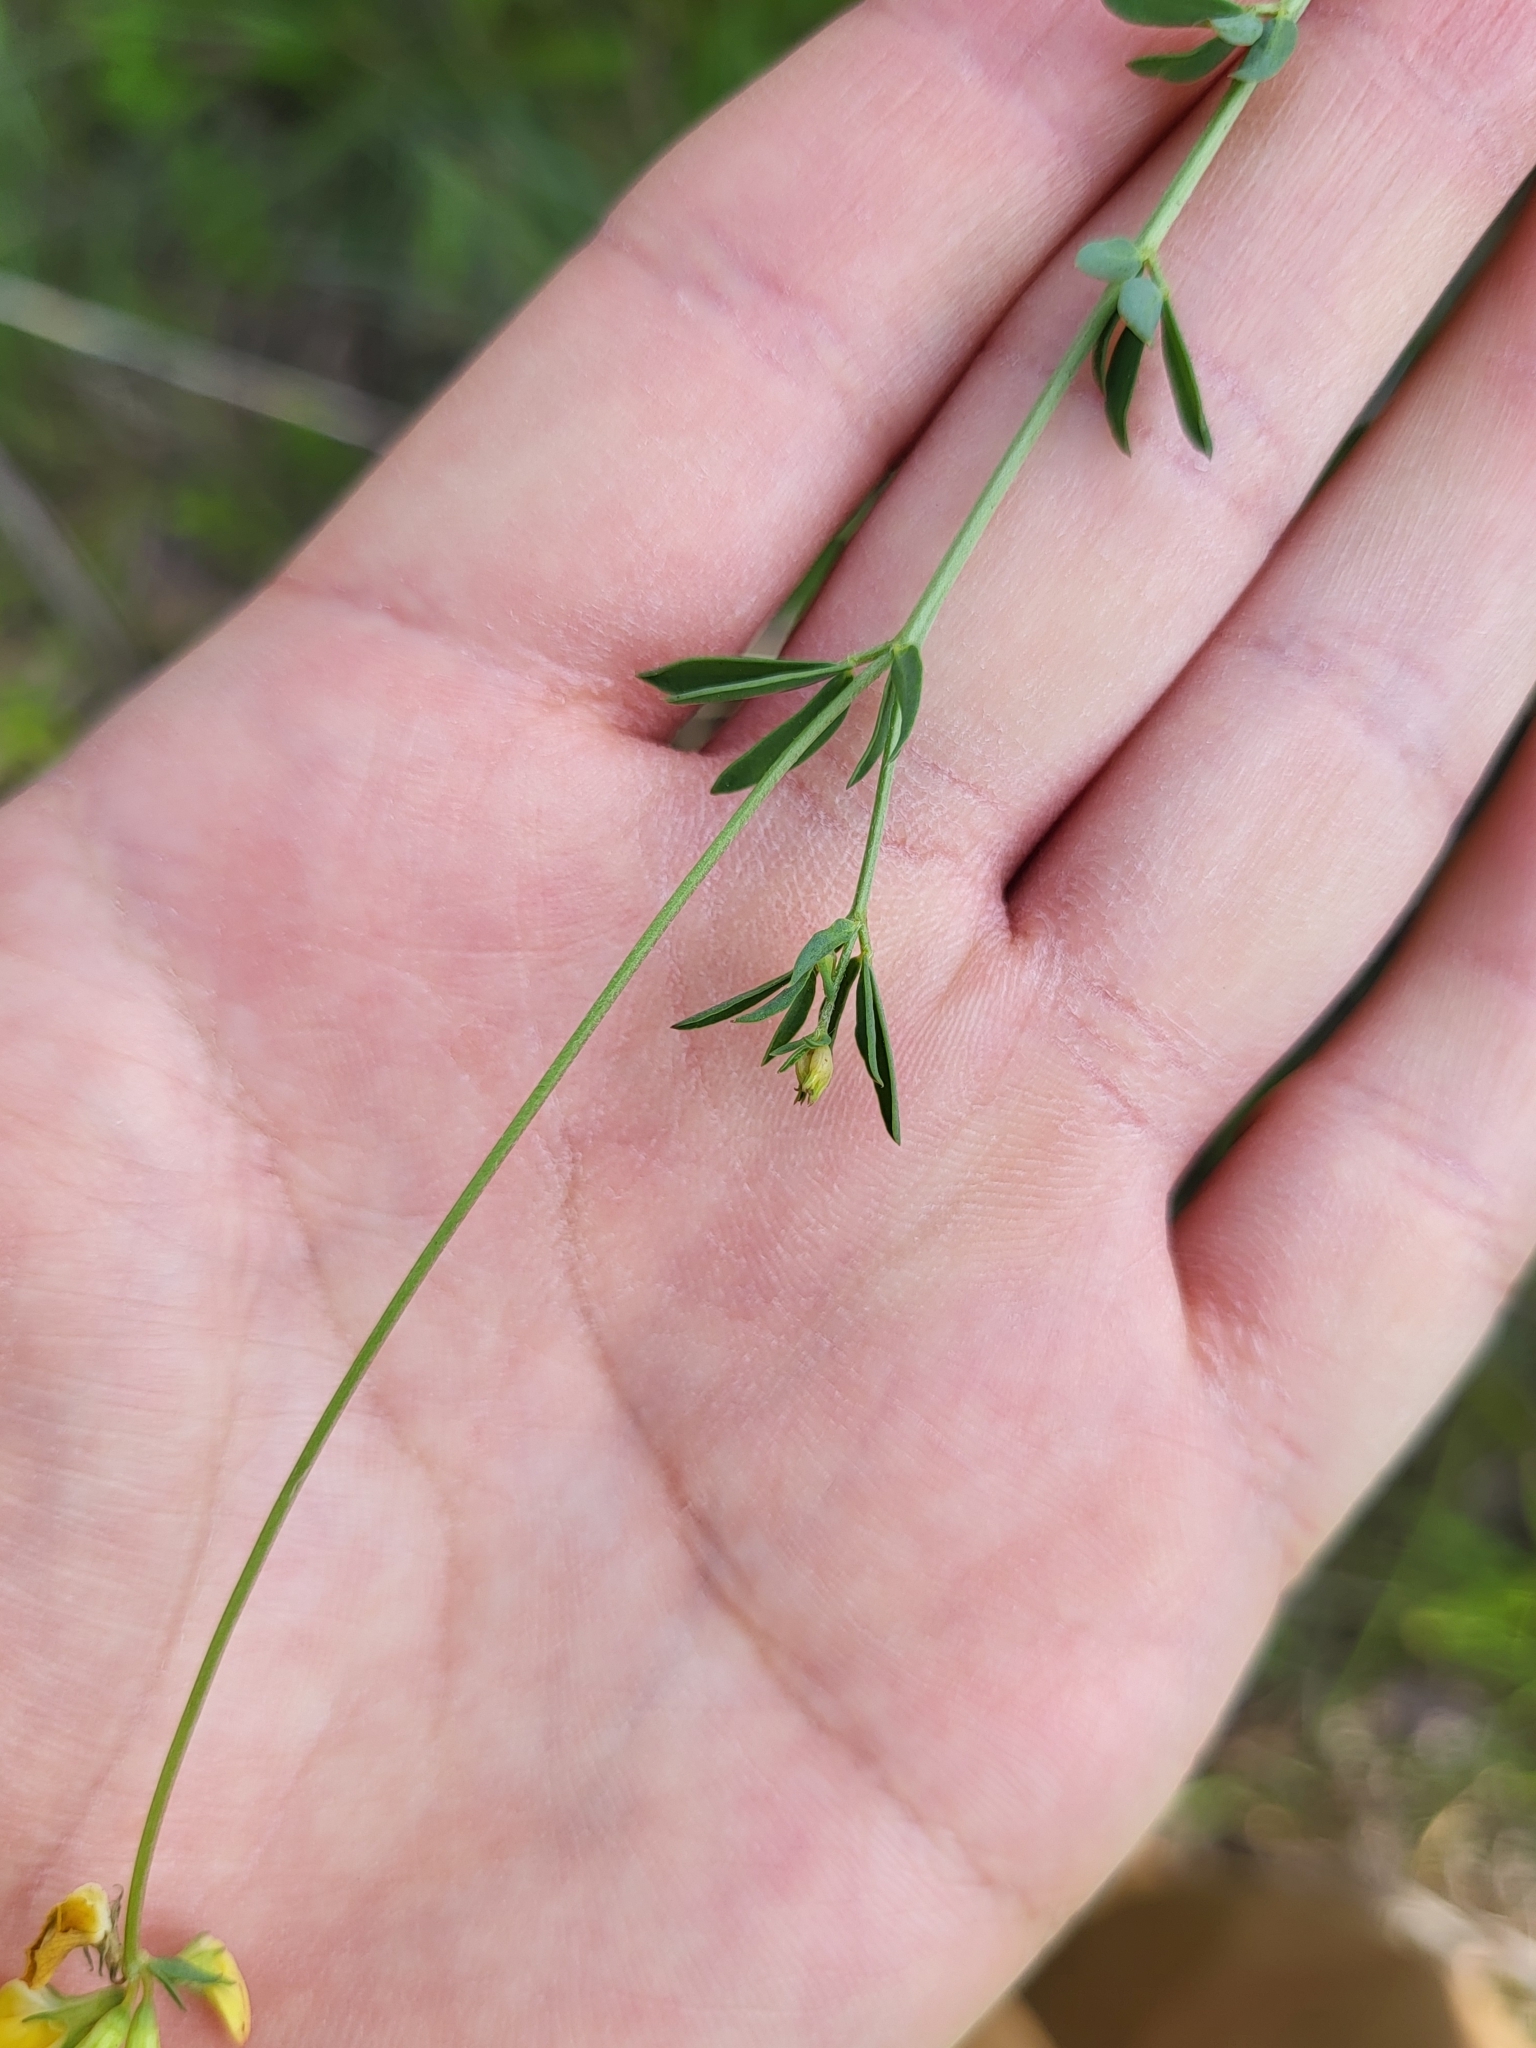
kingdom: Plantae
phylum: Tracheophyta
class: Magnoliopsida
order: Fabales
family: Fabaceae
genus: Lotus
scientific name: Lotus tenuis
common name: Narrow-leaved bird's-foot-trefoil
